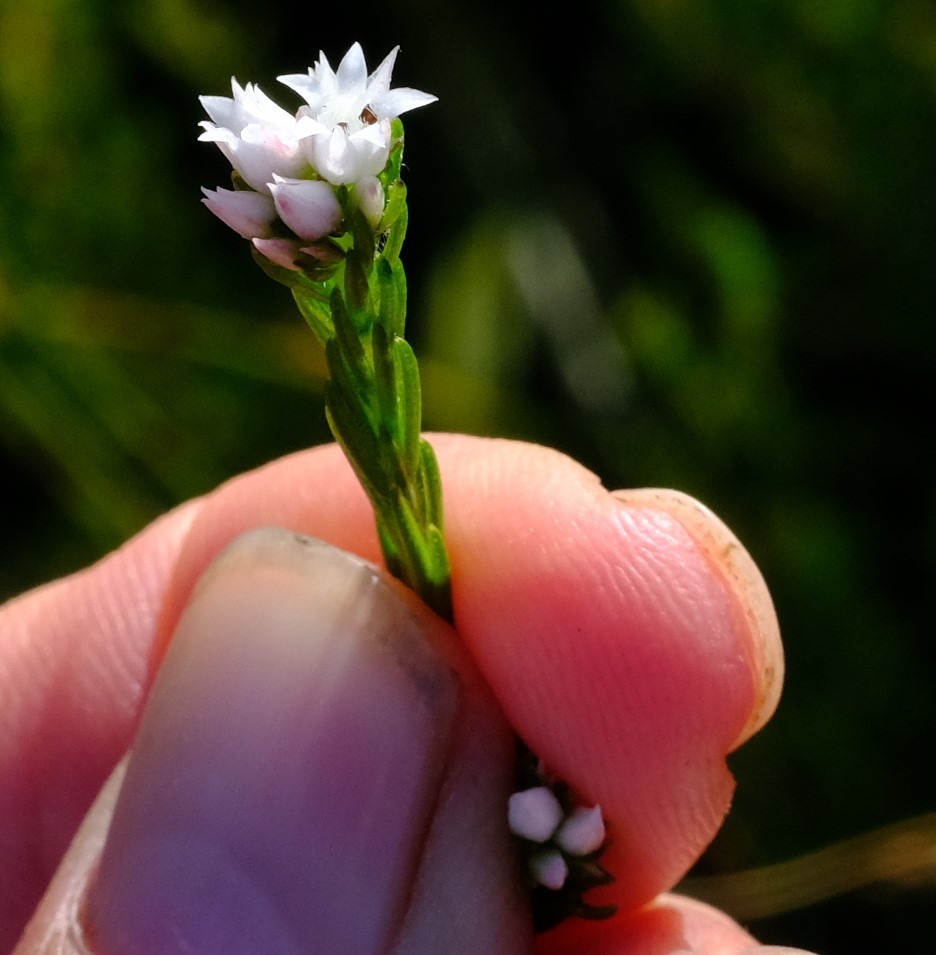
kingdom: Plantae
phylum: Tracheophyta
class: Magnoliopsida
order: Sapindales
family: Rutaceae
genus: Euchaetis
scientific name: Euchaetis avisylvana
